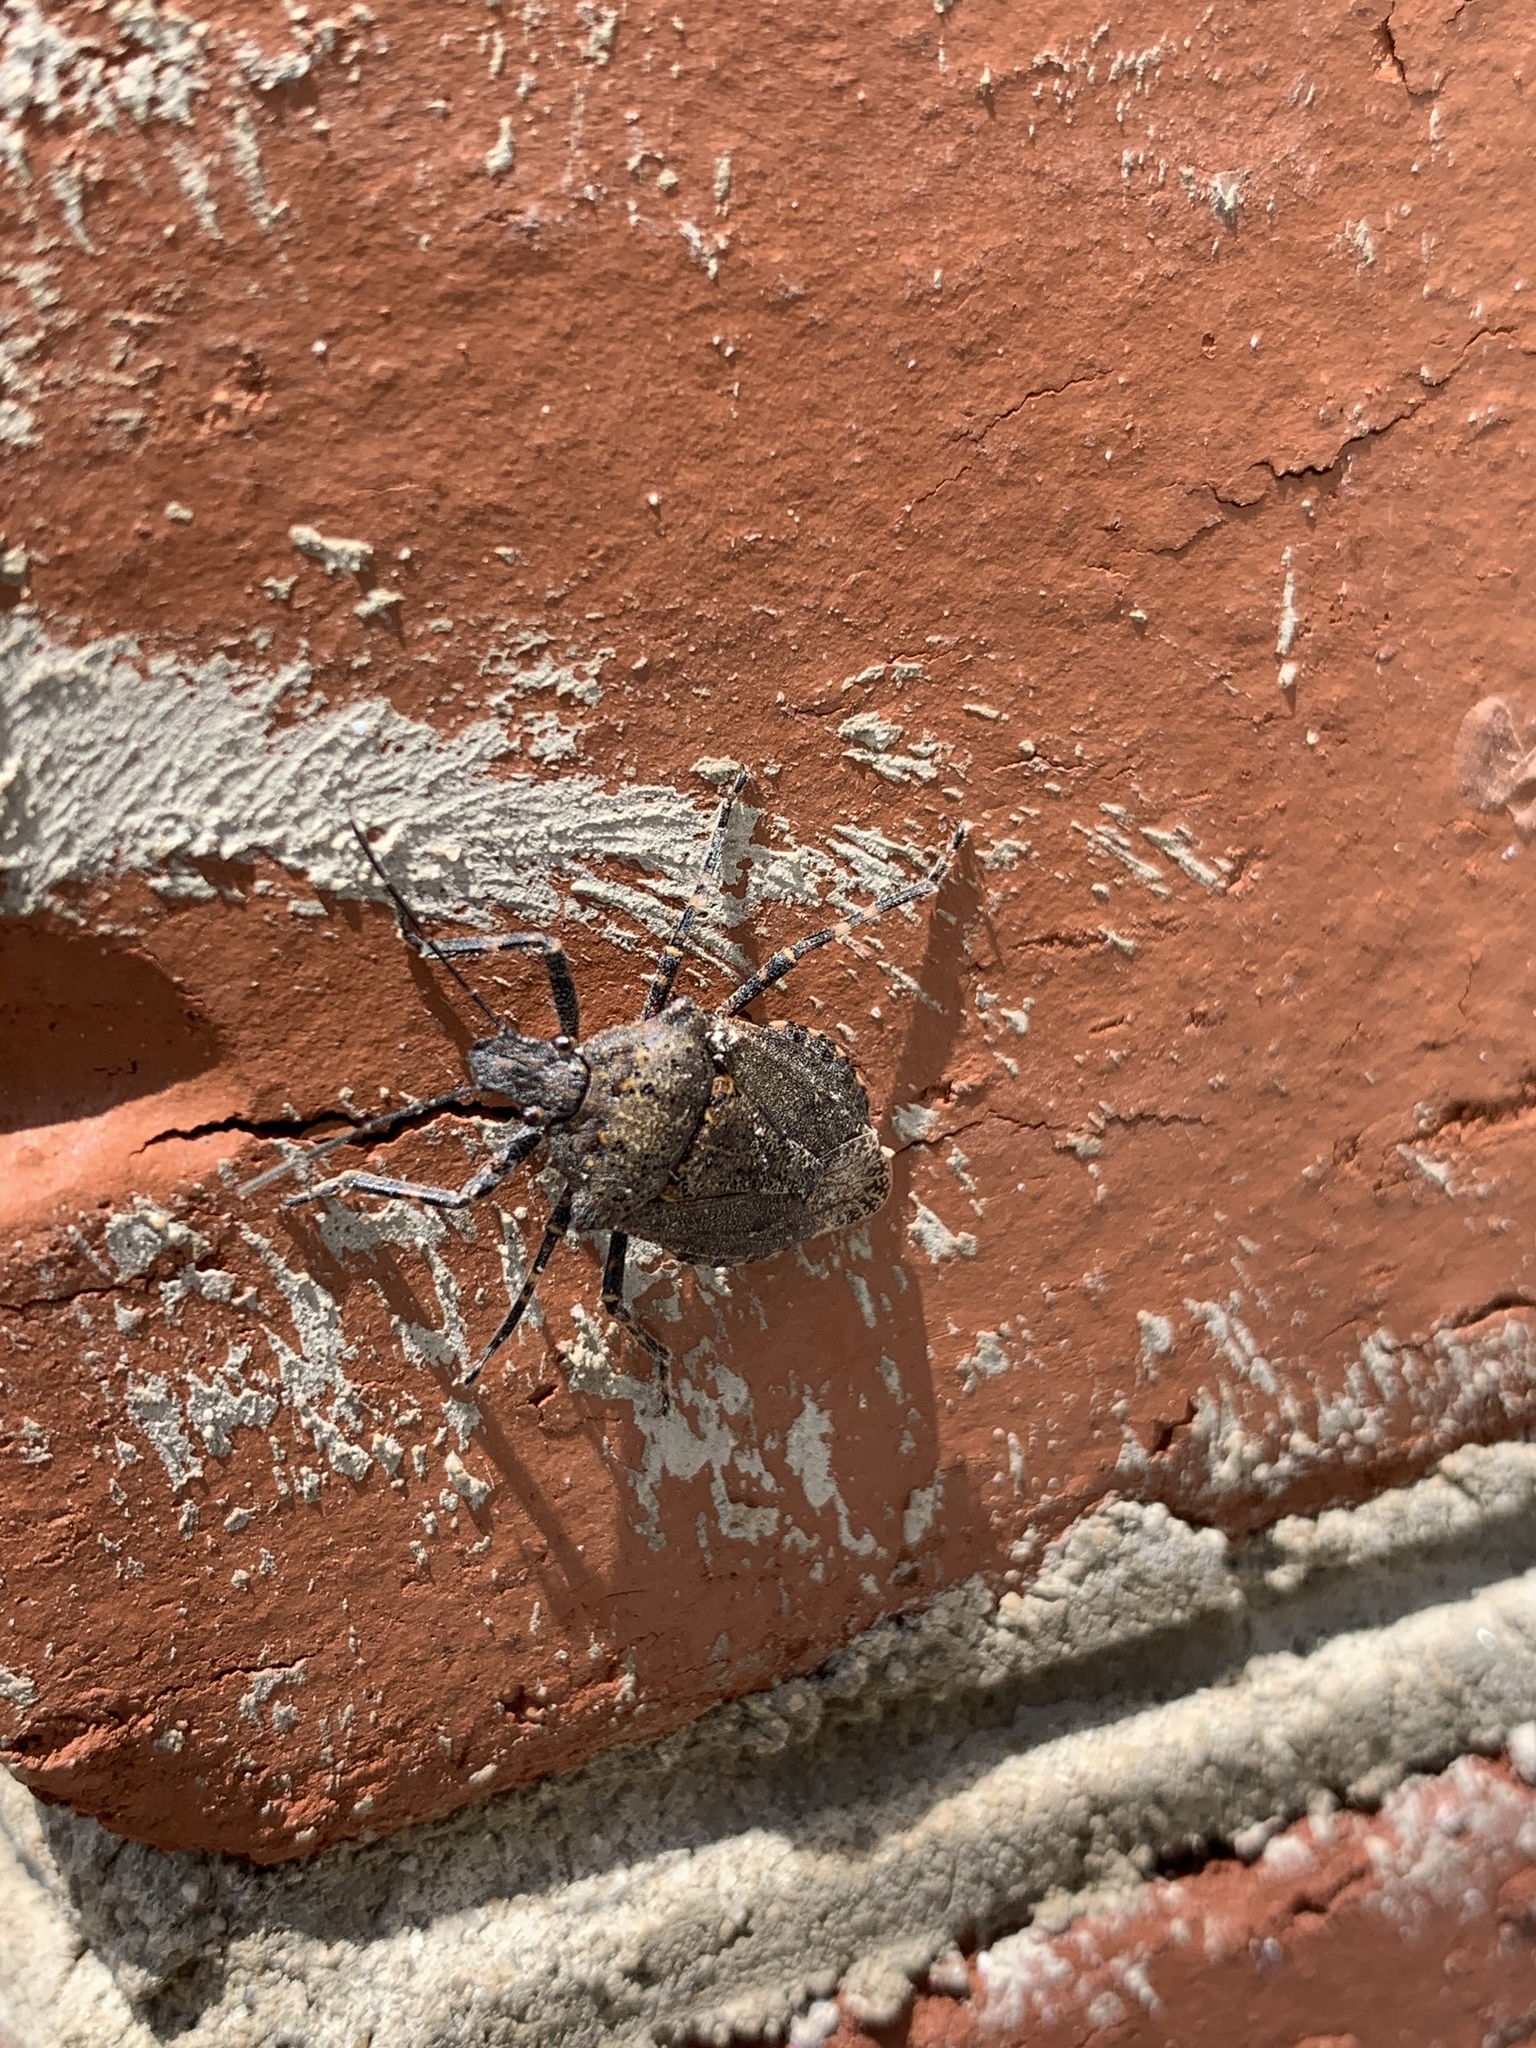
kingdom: Animalia
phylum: Arthropoda
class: Insecta
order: Hemiptera
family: Pentatomidae
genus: Brochymena
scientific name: Brochymena quadripustulata
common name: Four-humped stink bug
